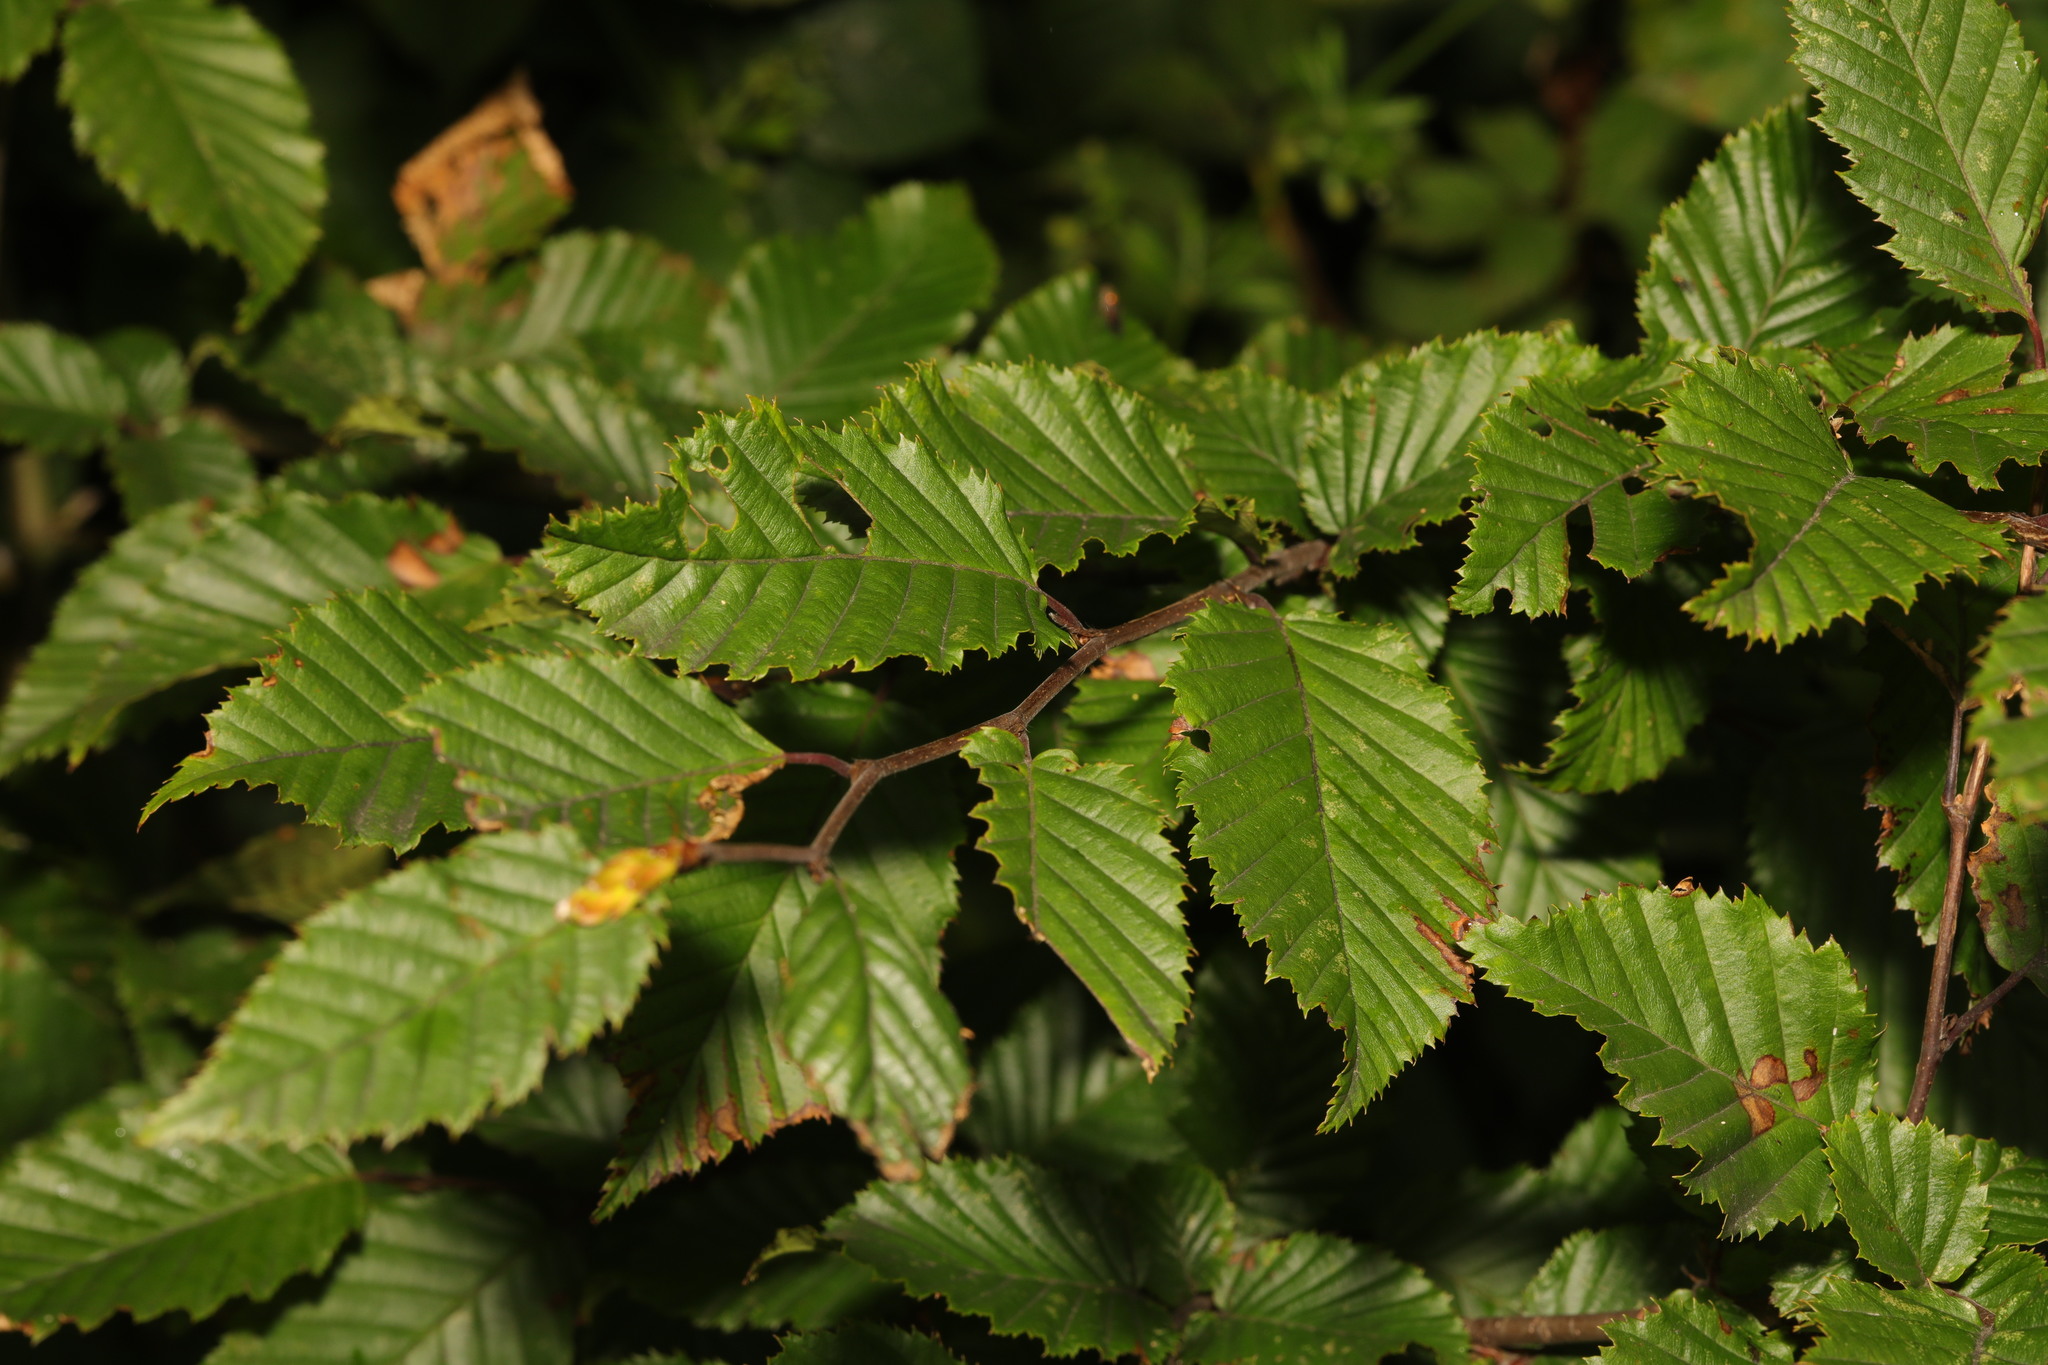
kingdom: Plantae
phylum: Tracheophyta
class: Magnoliopsida
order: Fagales
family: Betulaceae
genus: Carpinus
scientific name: Carpinus betulus
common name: Hornbeam
